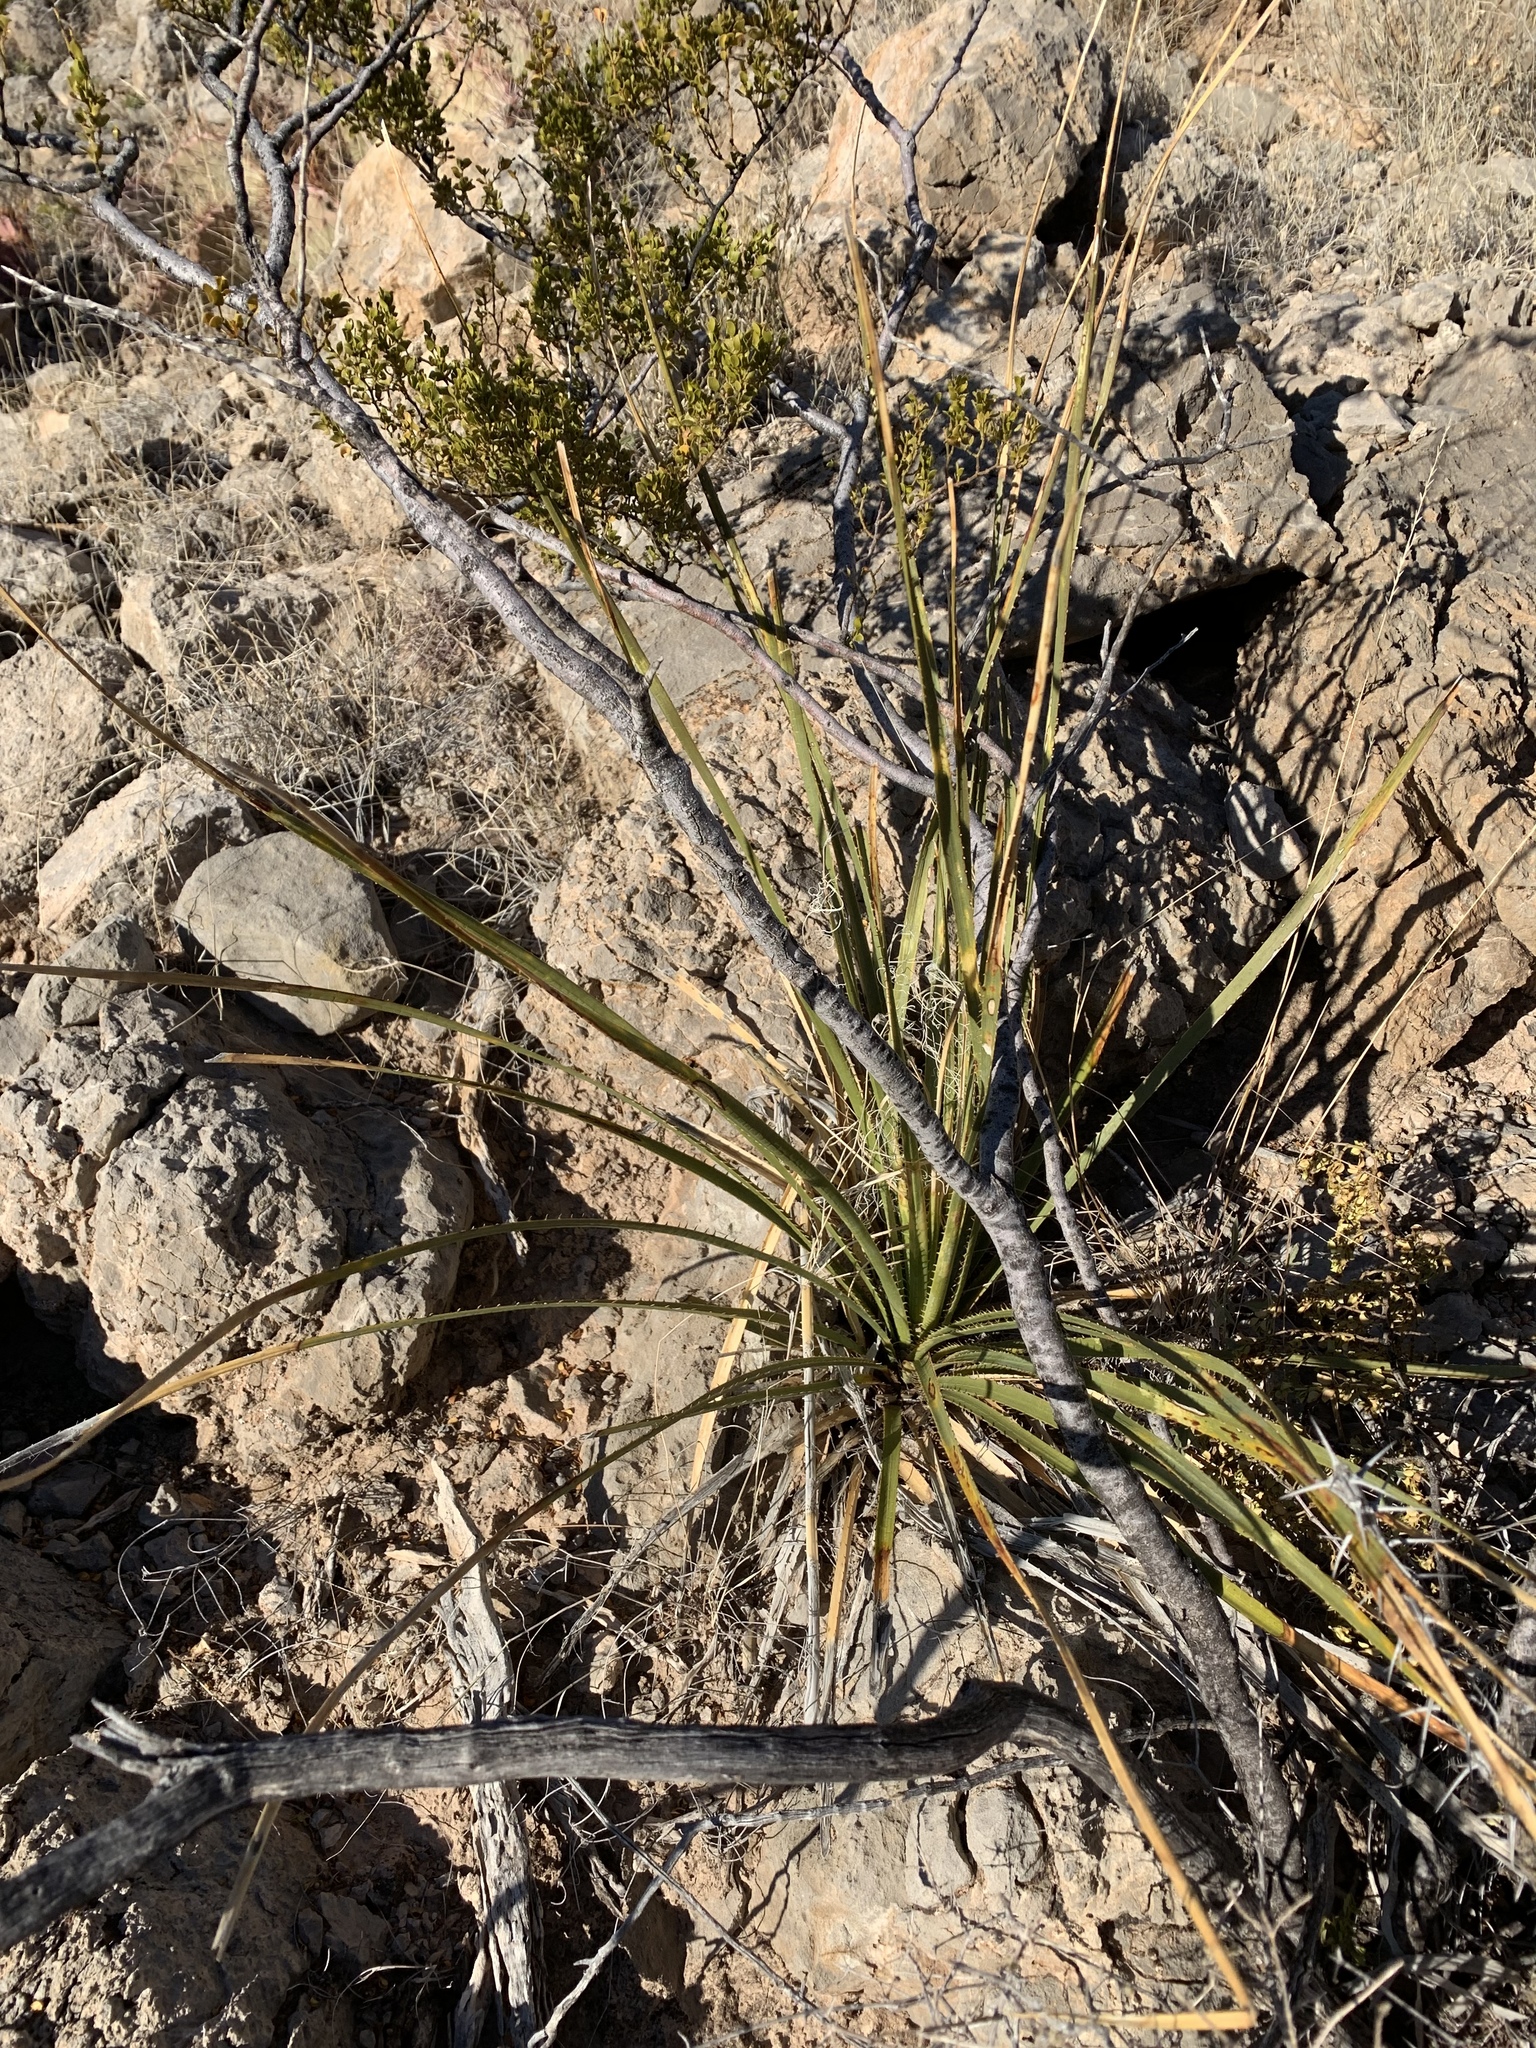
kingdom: Plantae
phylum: Tracheophyta
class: Liliopsida
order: Asparagales
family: Asparagaceae
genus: Dasylirion
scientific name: Dasylirion wheeleri
